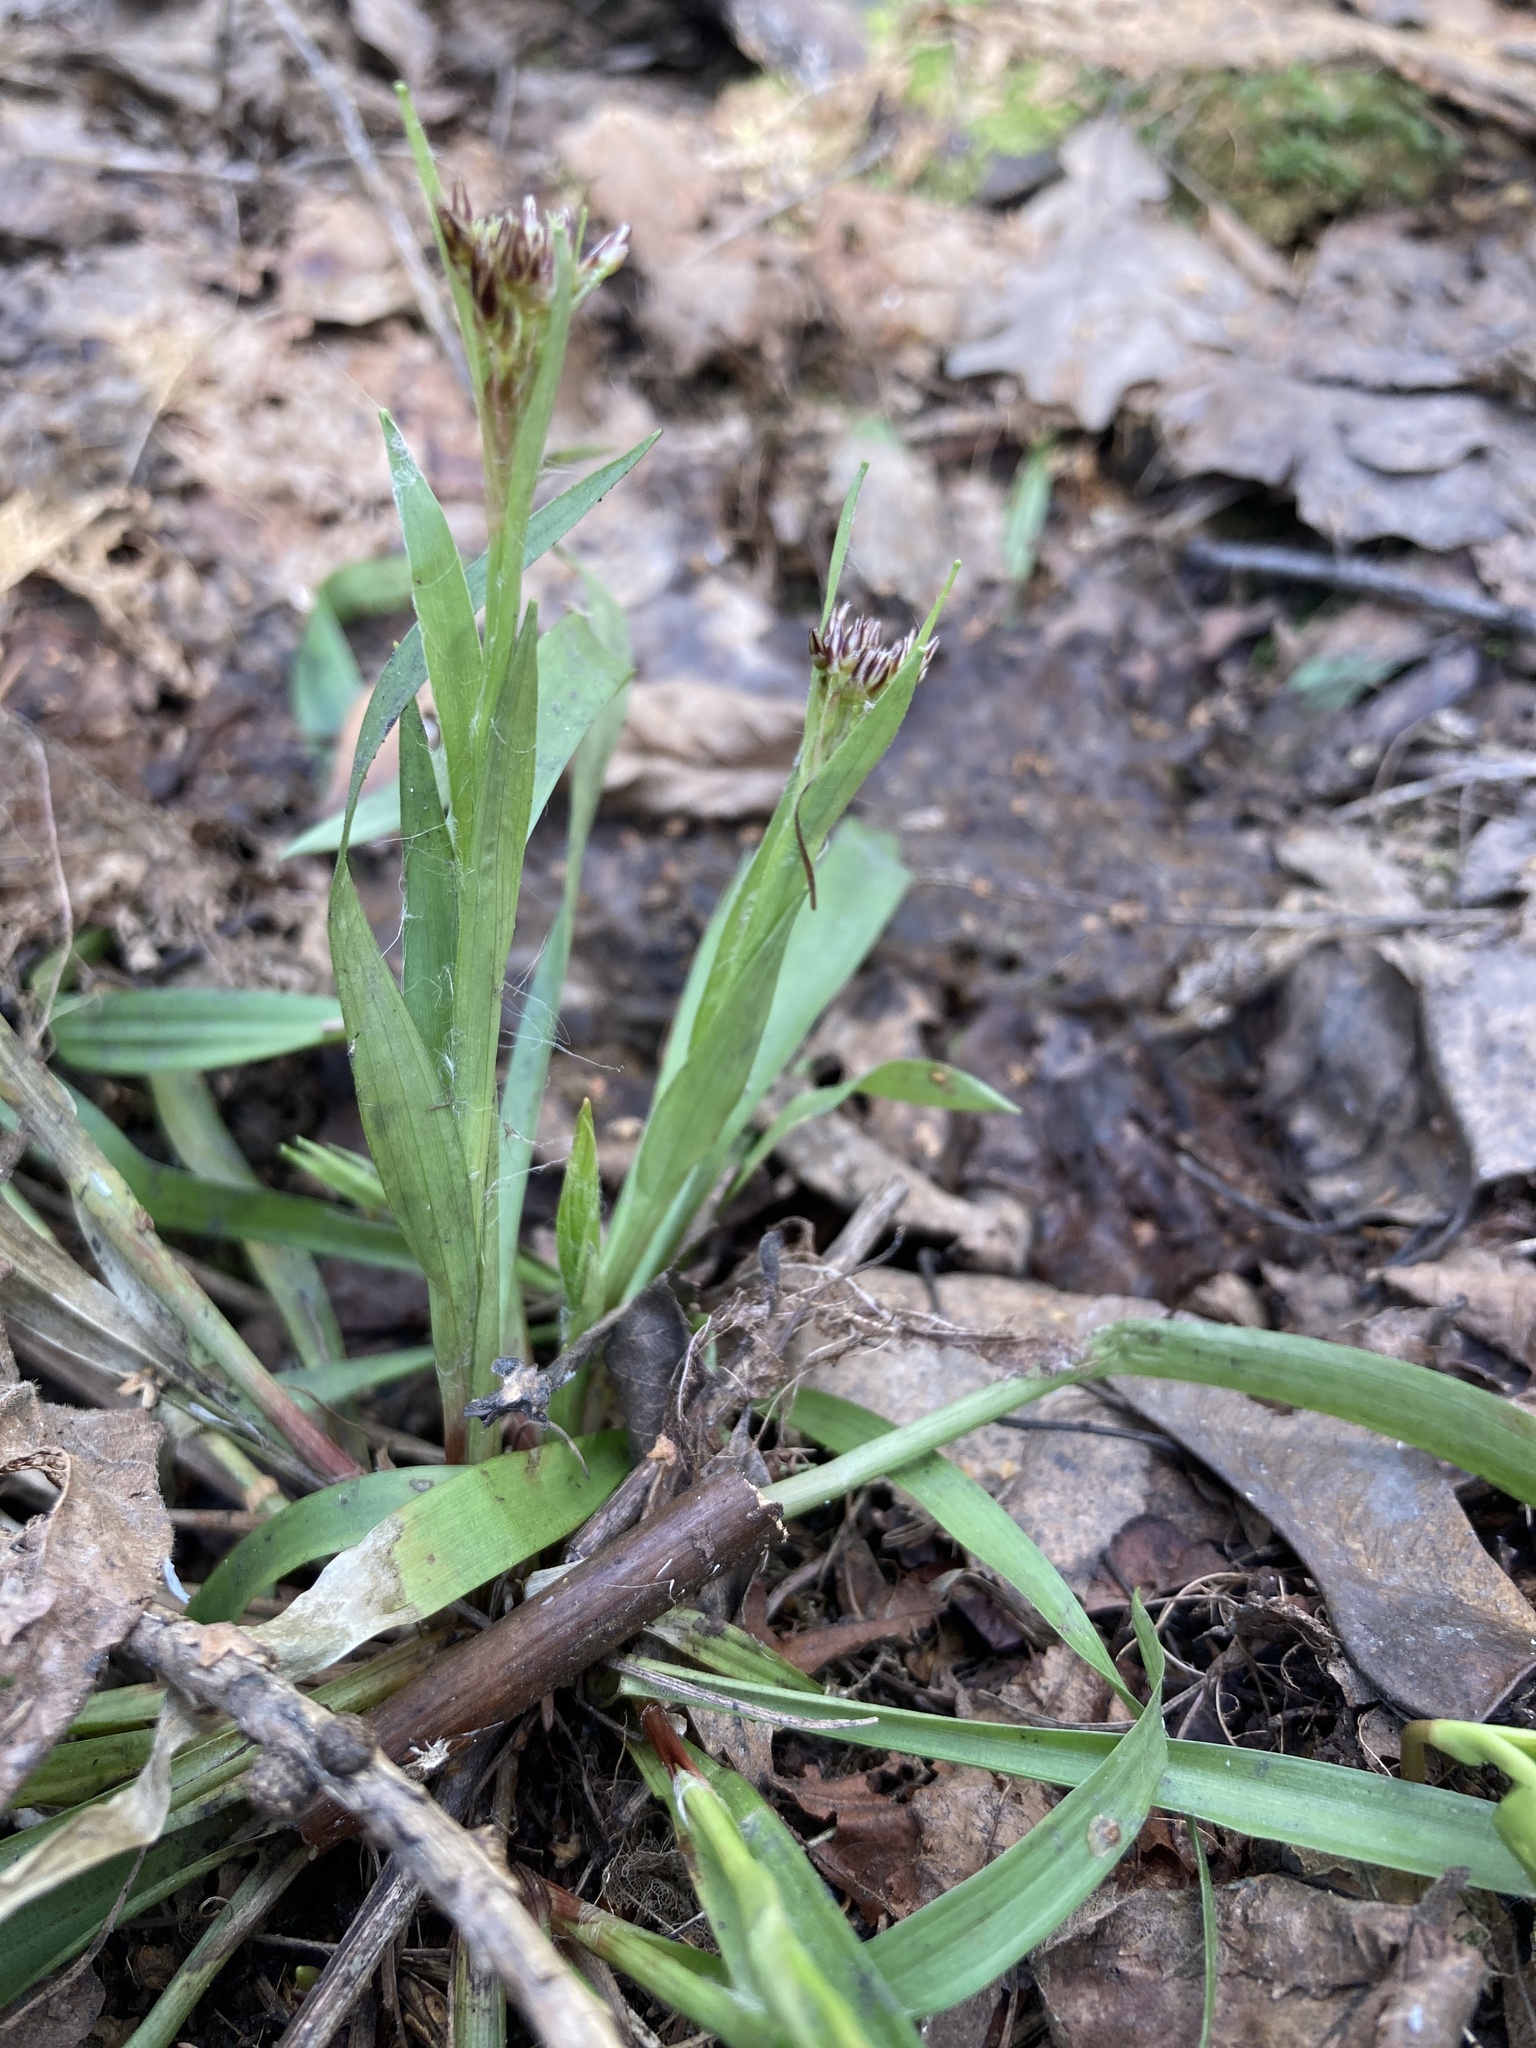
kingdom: Plantae
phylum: Tracheophyta
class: Liliopsida
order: Poales
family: Juncaceae
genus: Luzula
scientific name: Luzula pilosa
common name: Hairy wood-rush
